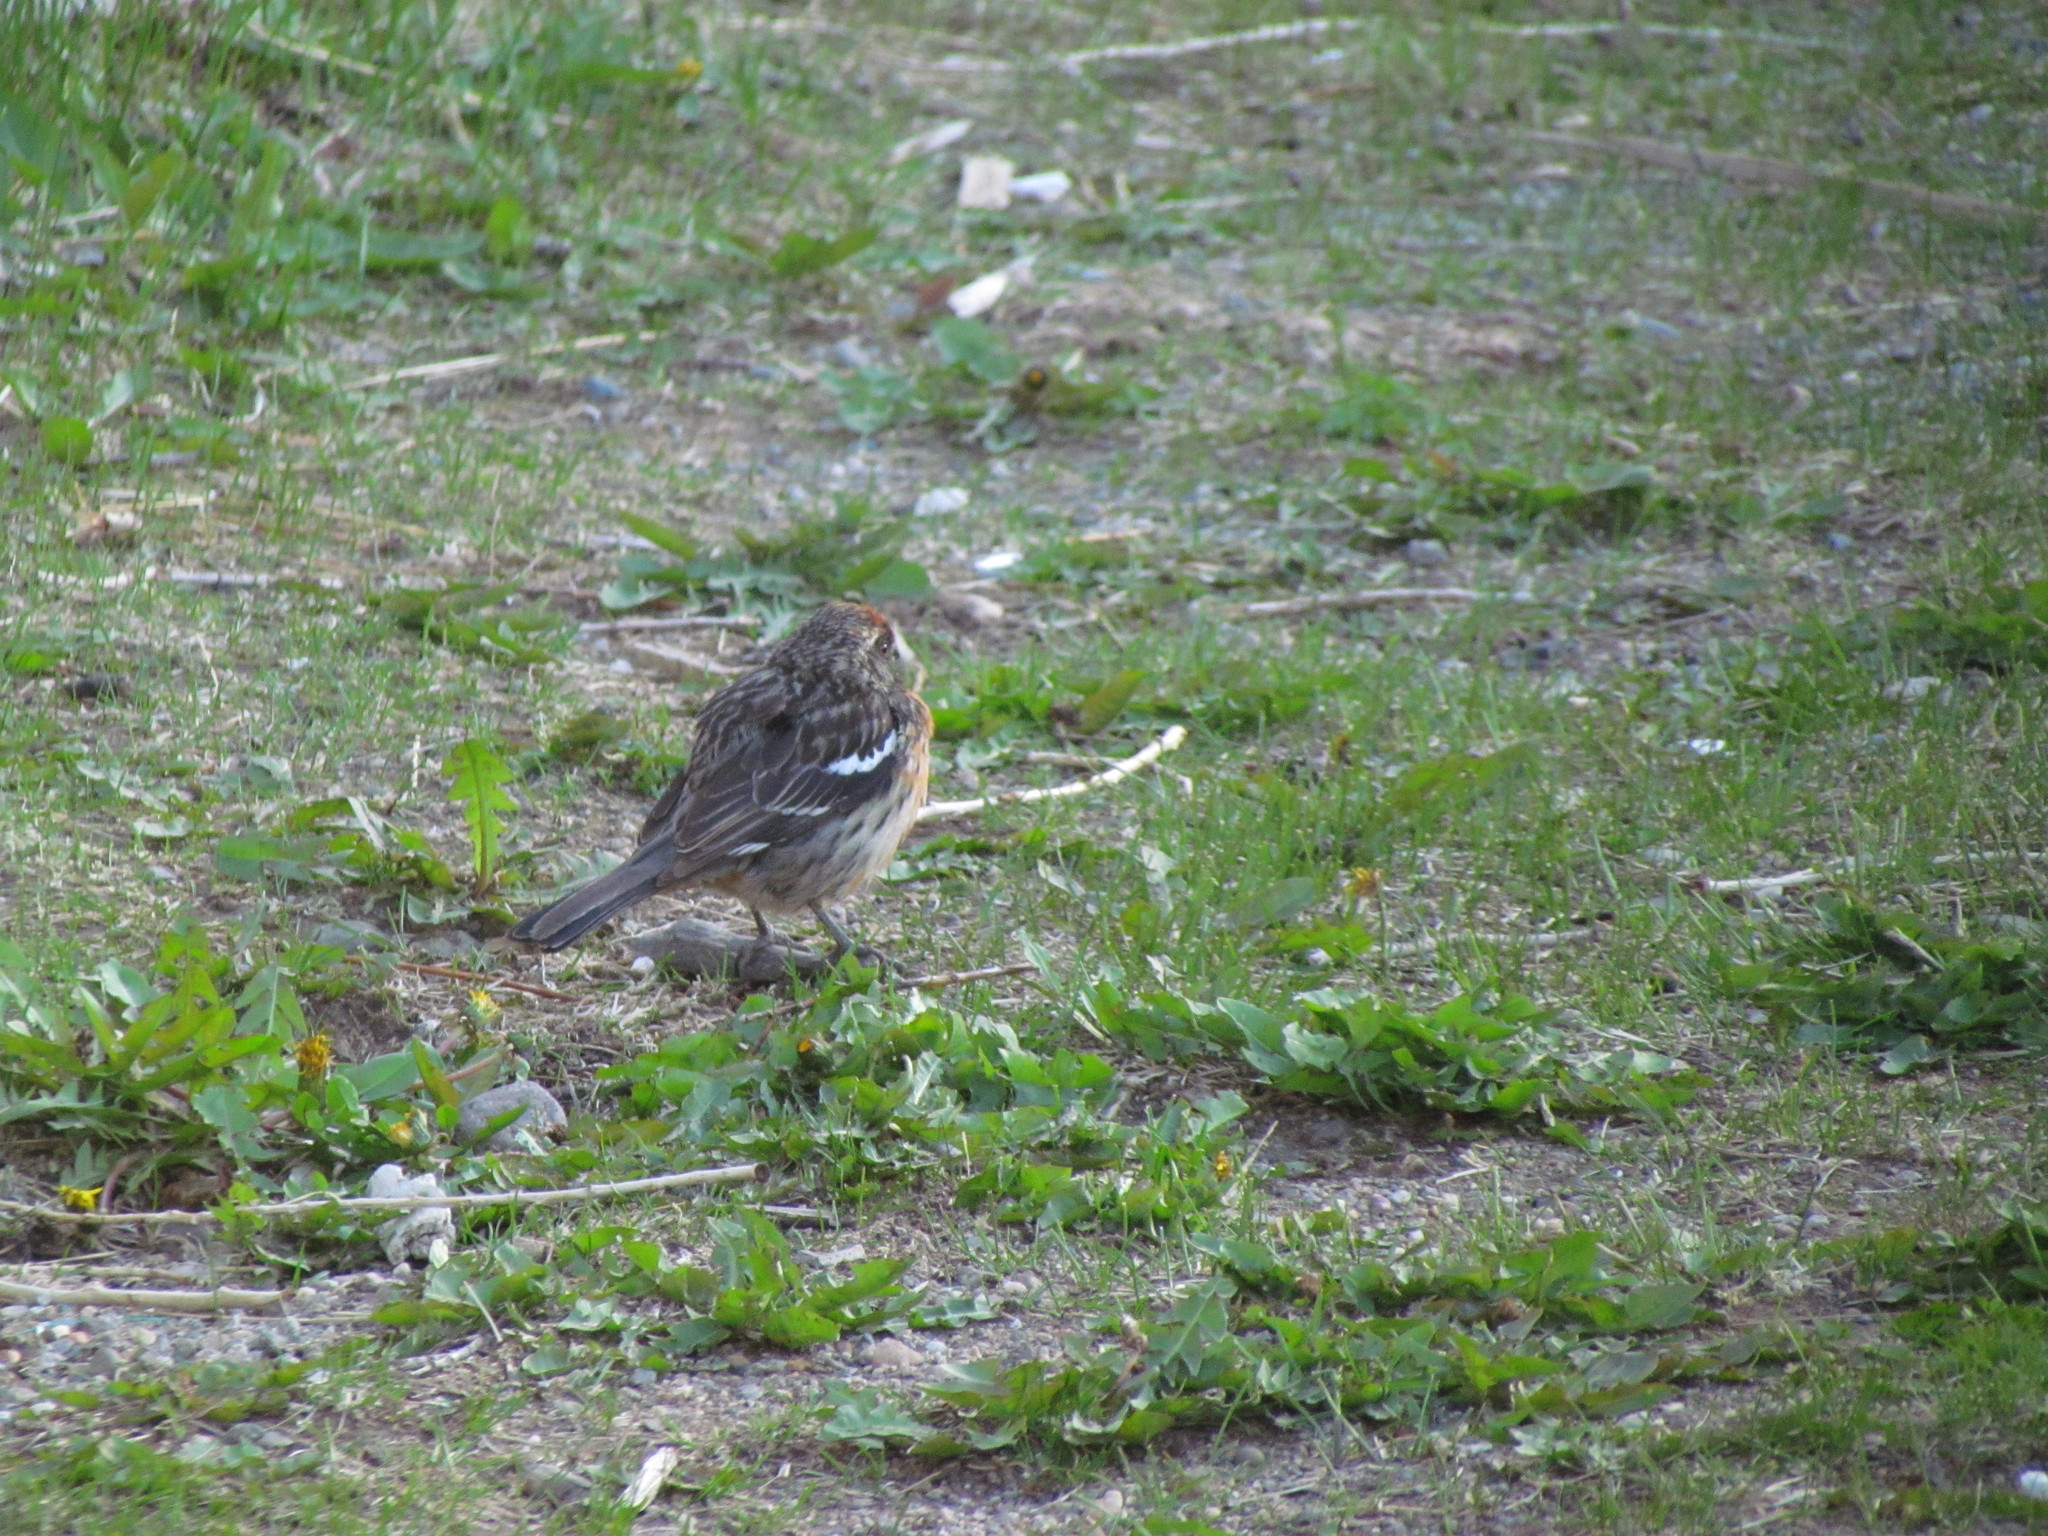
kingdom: Animalia
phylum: Chordata
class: Aves
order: Passeriformes
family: Cotingidae
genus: Phytotoma
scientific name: Phytotoma rara
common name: Rufous-tailed plantcutter
